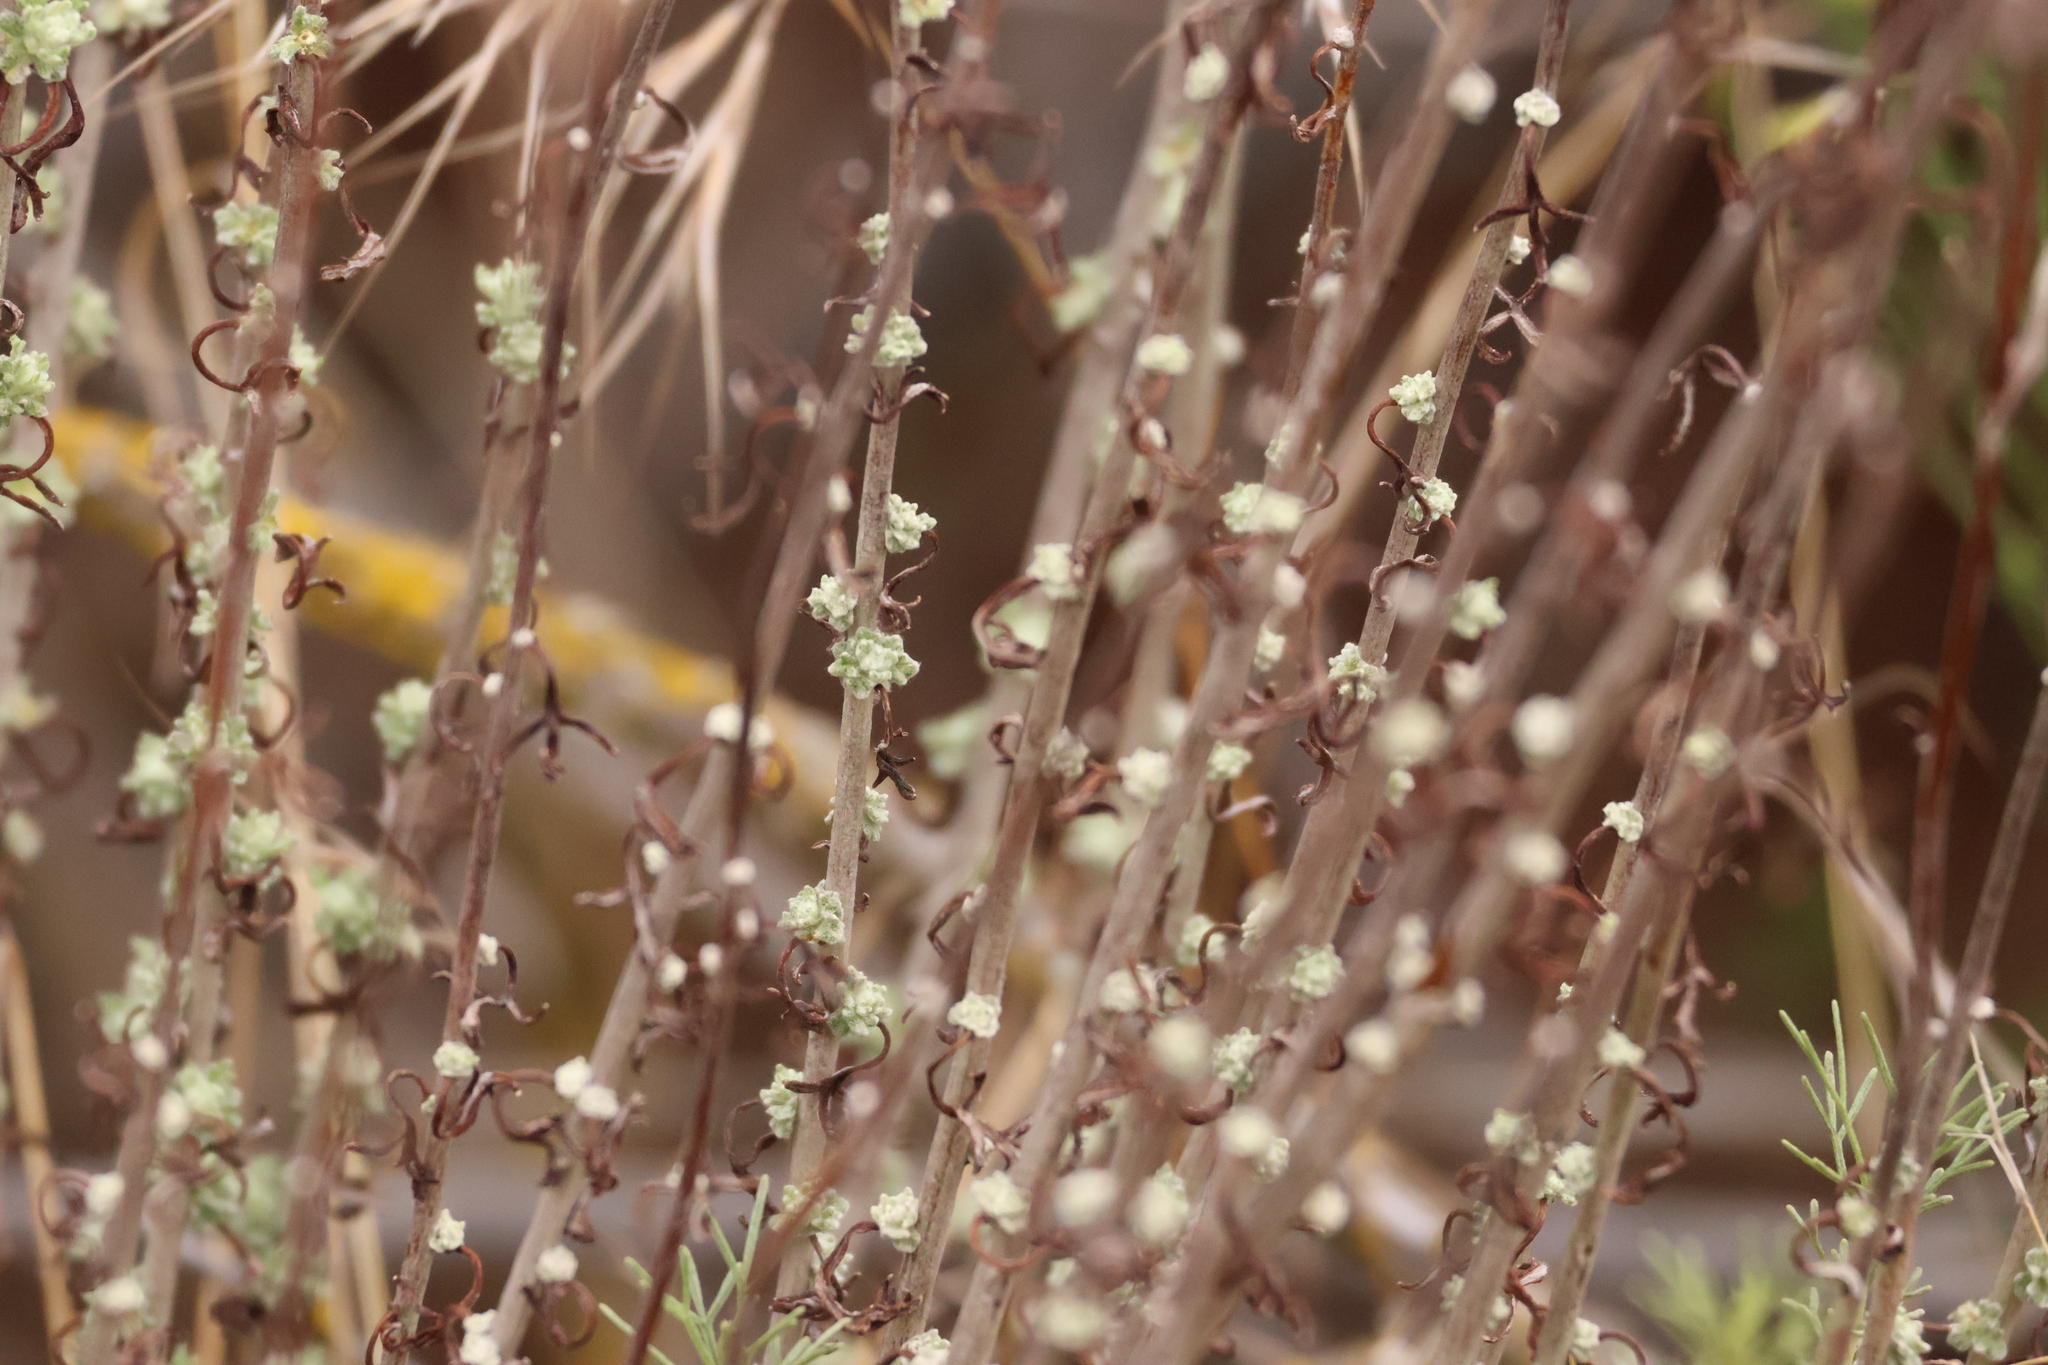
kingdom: Plantae
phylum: Tracheophyta
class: Magnoliopsida
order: Asterales
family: Asteraceae
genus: Eriophyllum
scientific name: Eriophyllum confertiflorum
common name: Golden-yarrow
